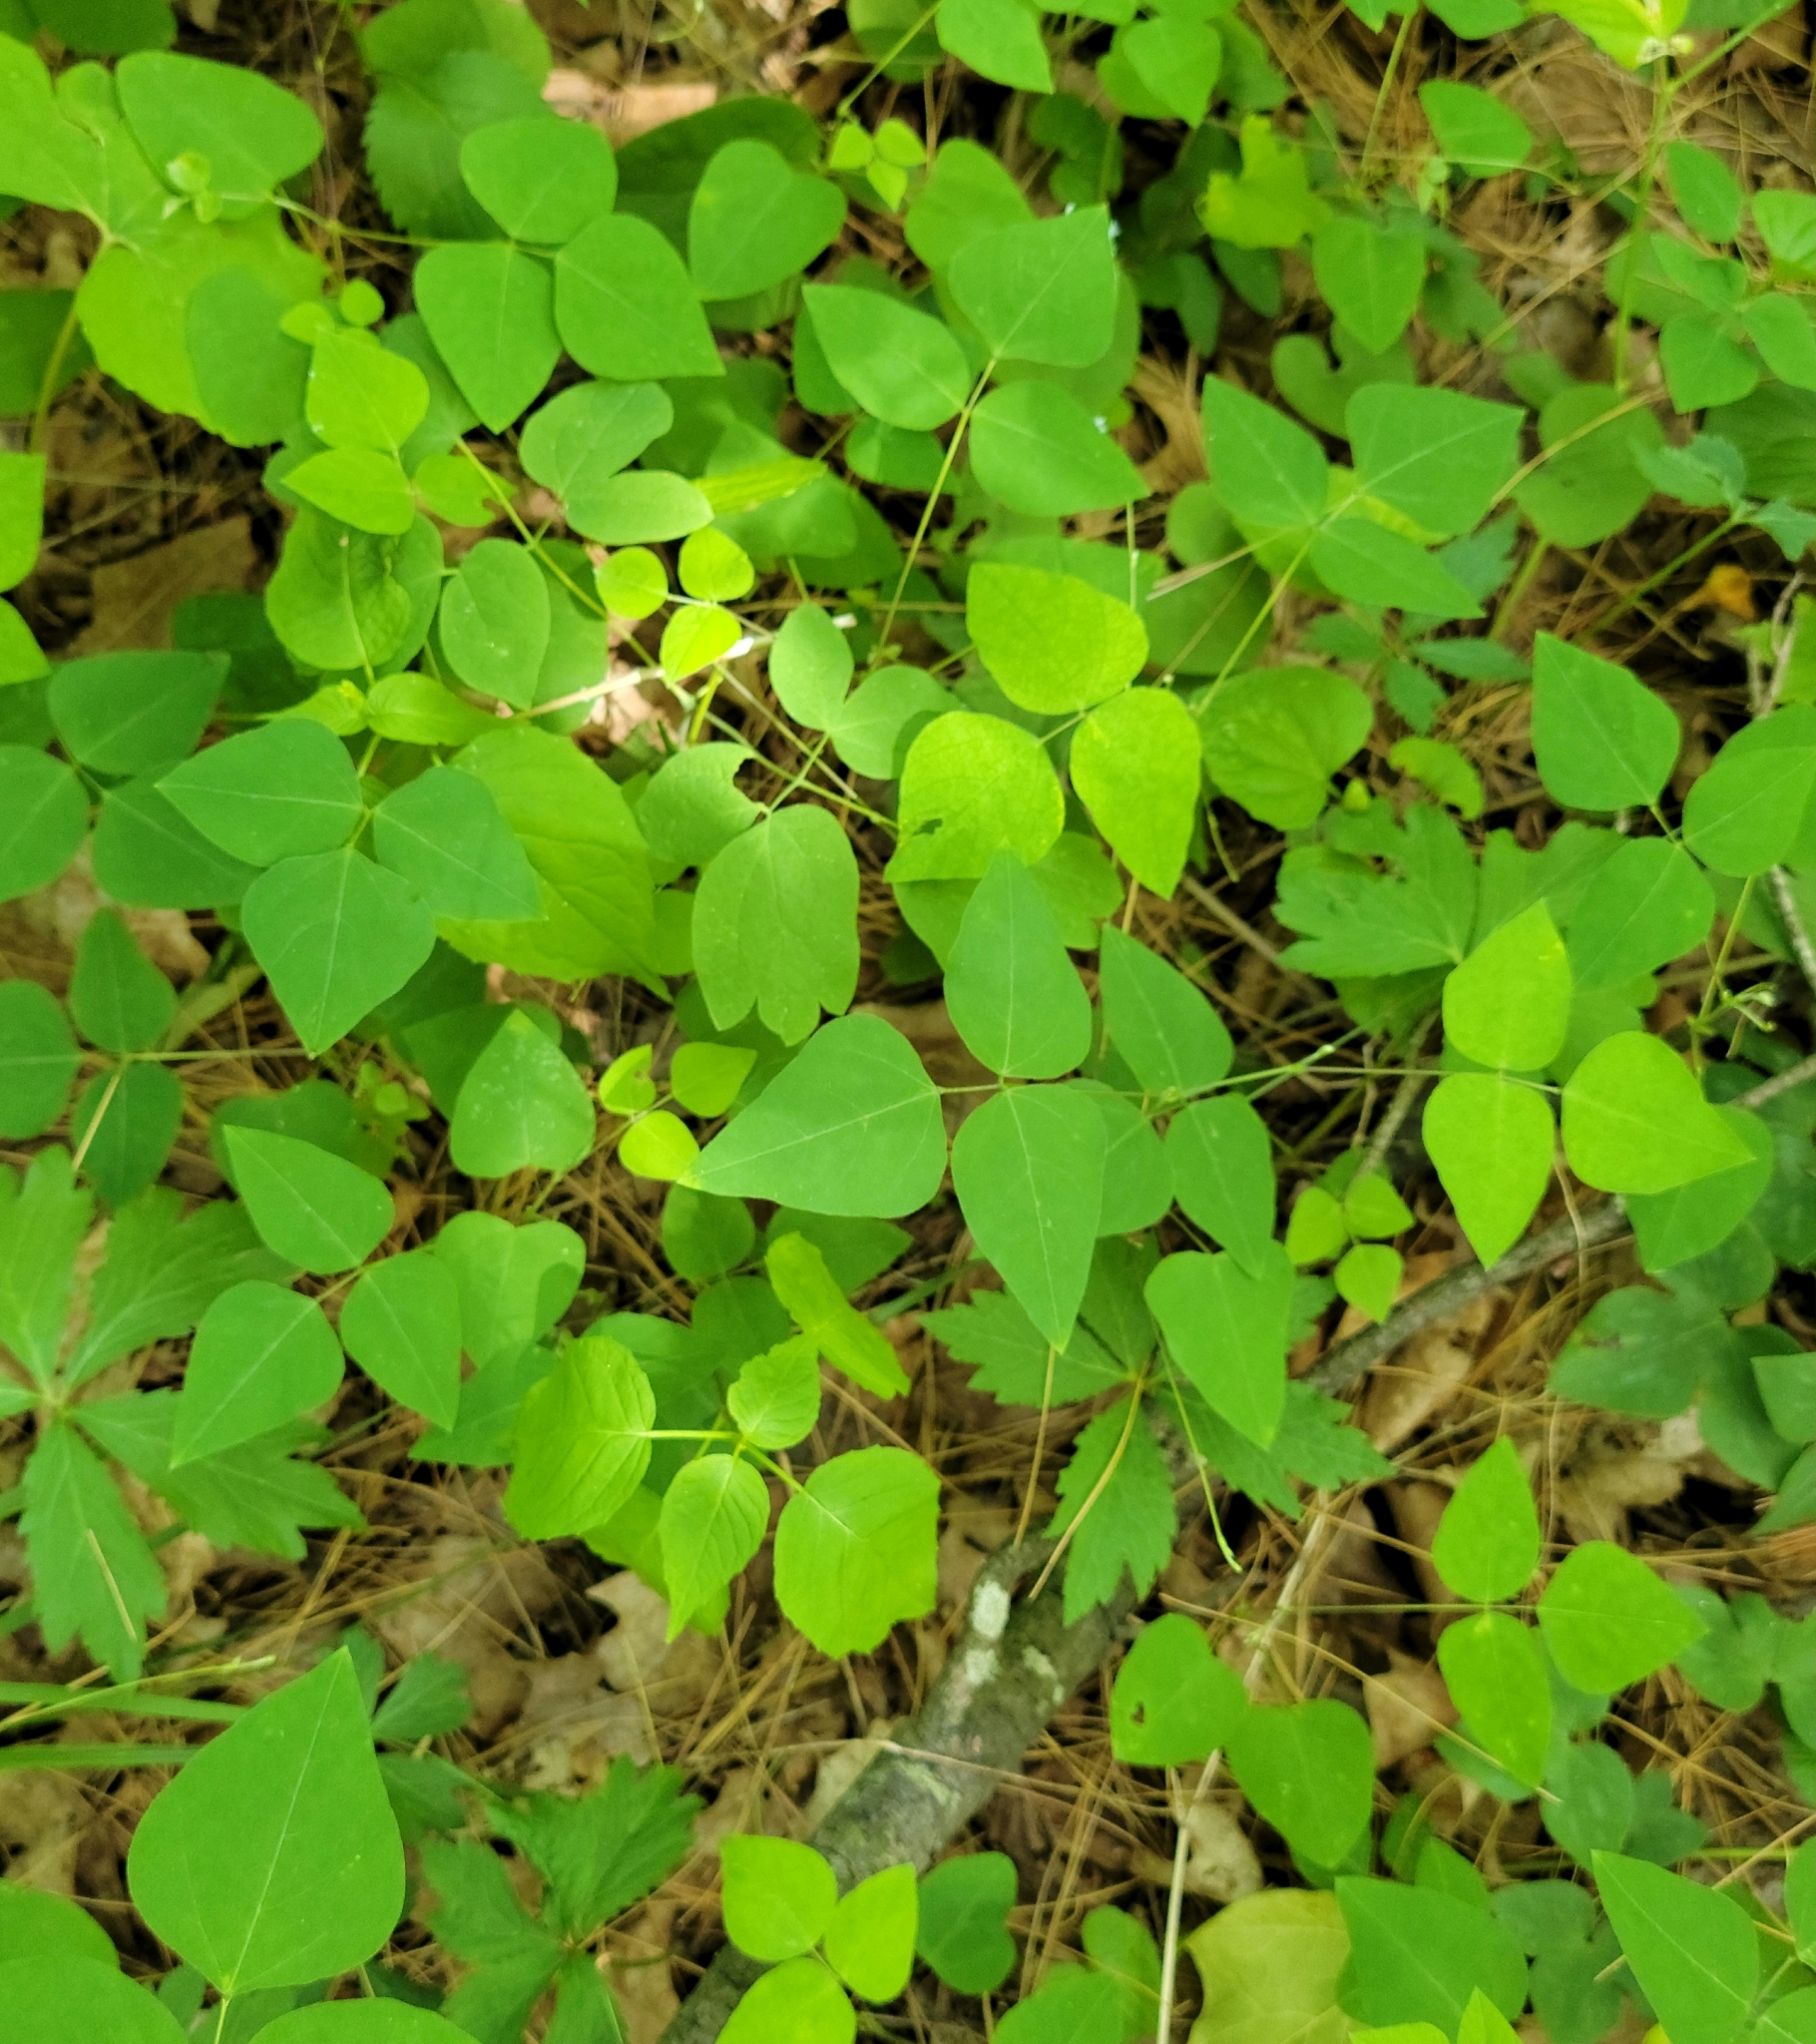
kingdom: Plantae
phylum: Tracheophyta
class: Magnoliopsida
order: Fabales
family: Fabaceae
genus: Amphicarpaea
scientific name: Amphicarpaea bracteata
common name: American hog peanut
